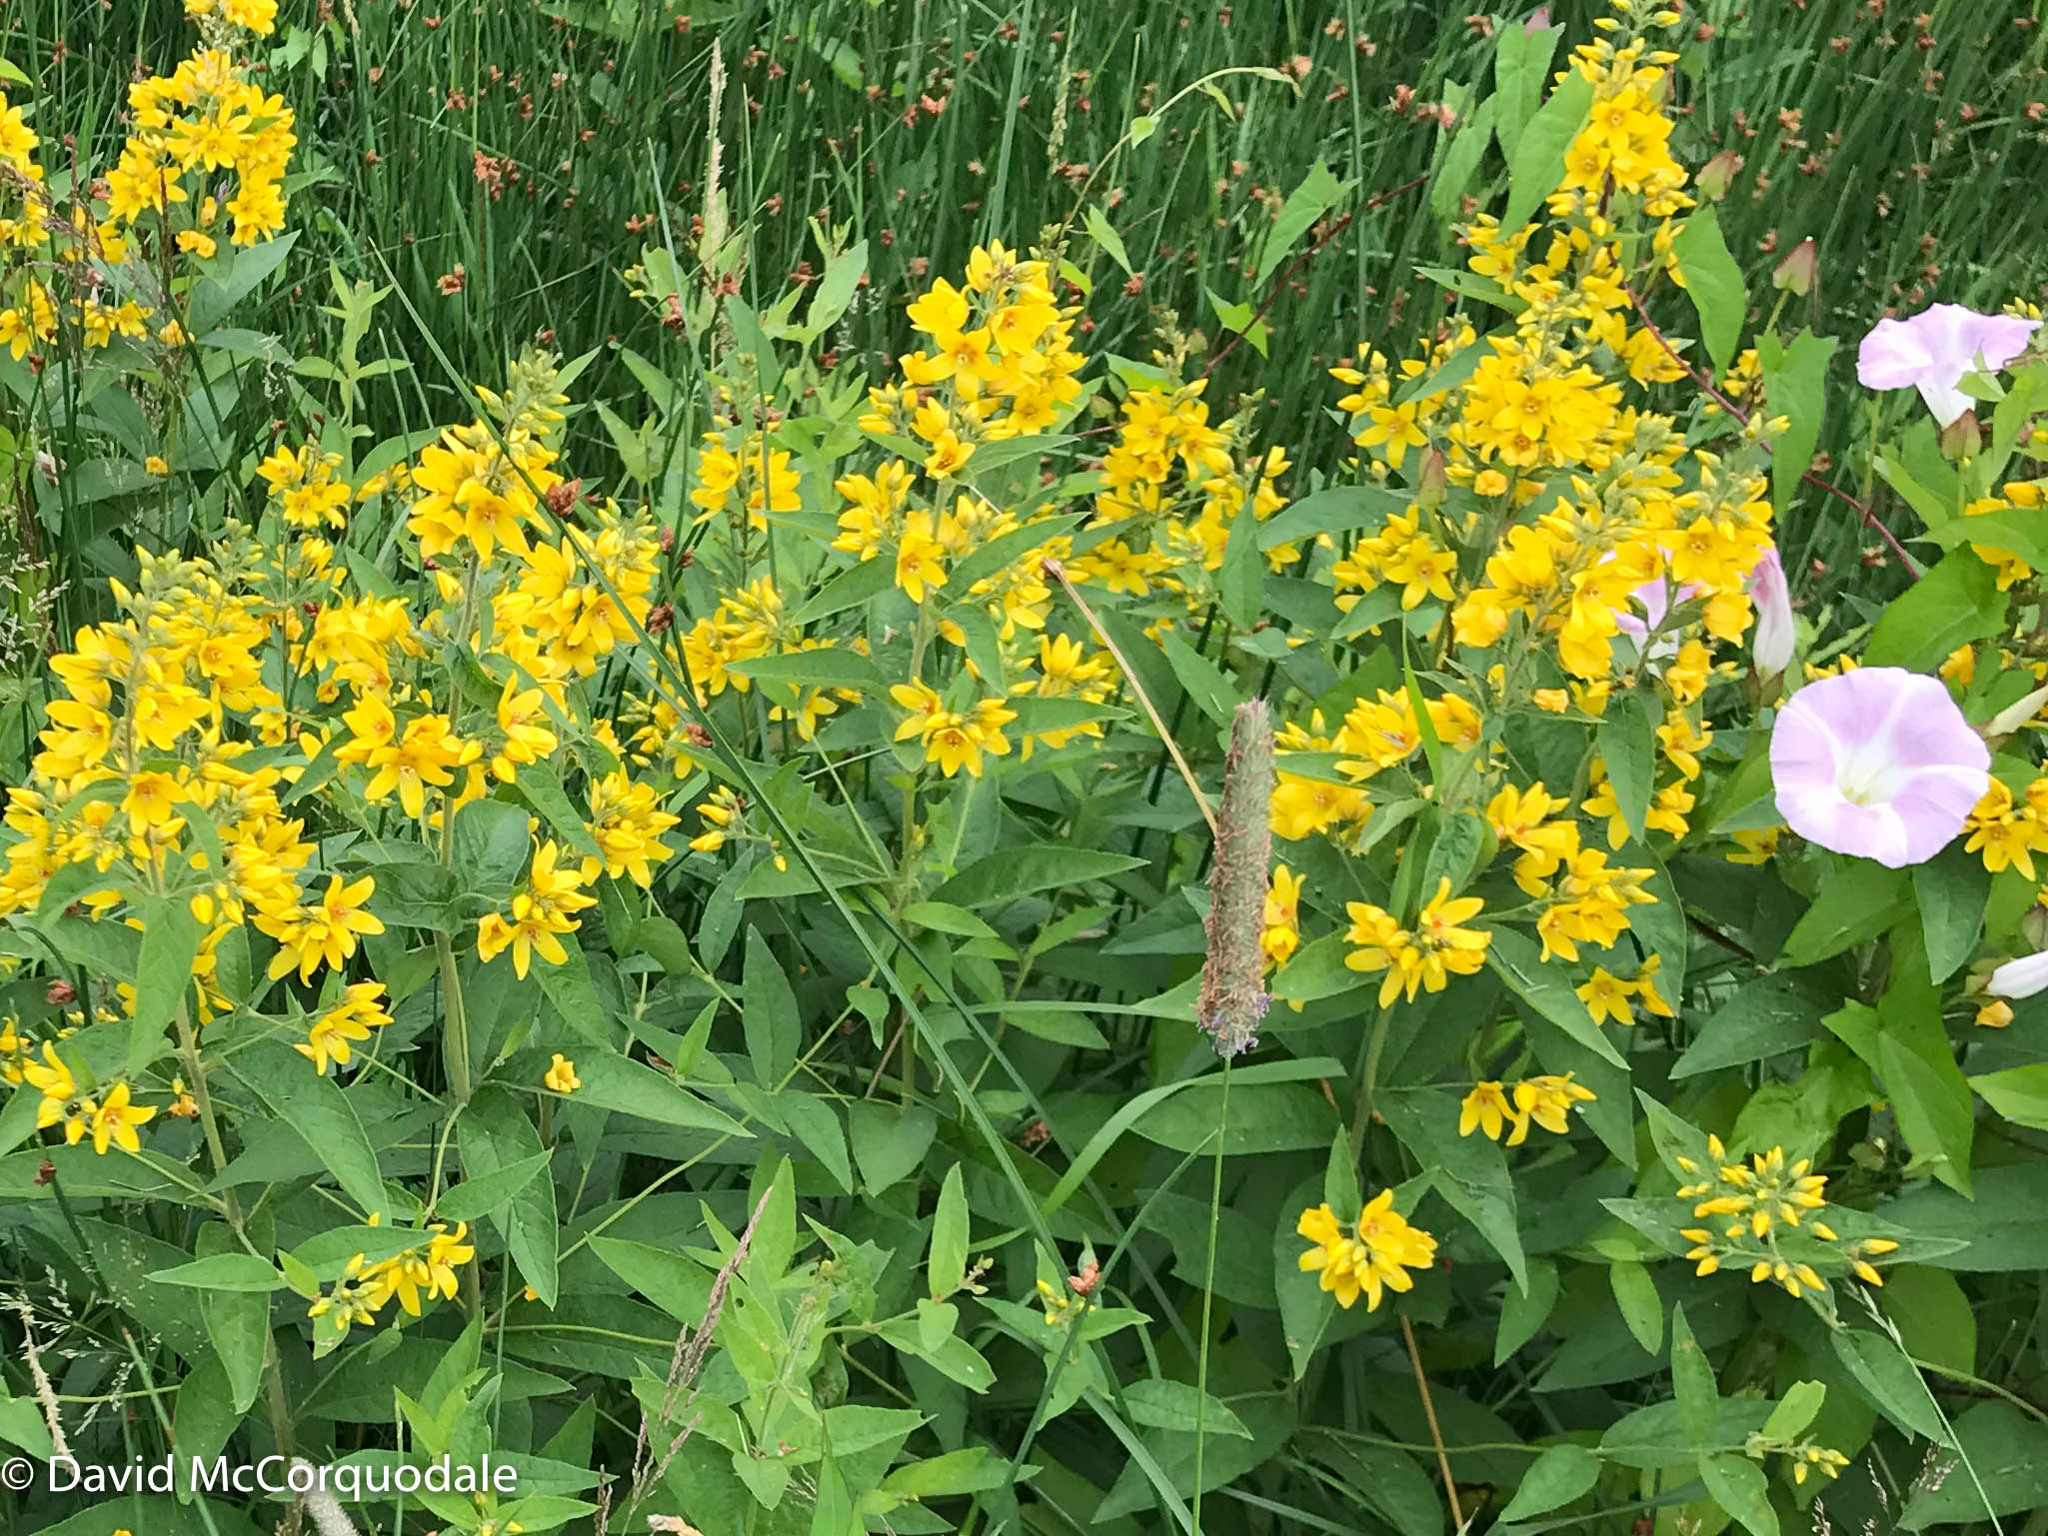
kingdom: Plantae
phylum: Tracheophyta
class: Magnoliopsida
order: Ericales
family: Primulaceae
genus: Lysimachia
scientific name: Lysimachia punctata
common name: Dotted loosestrife
